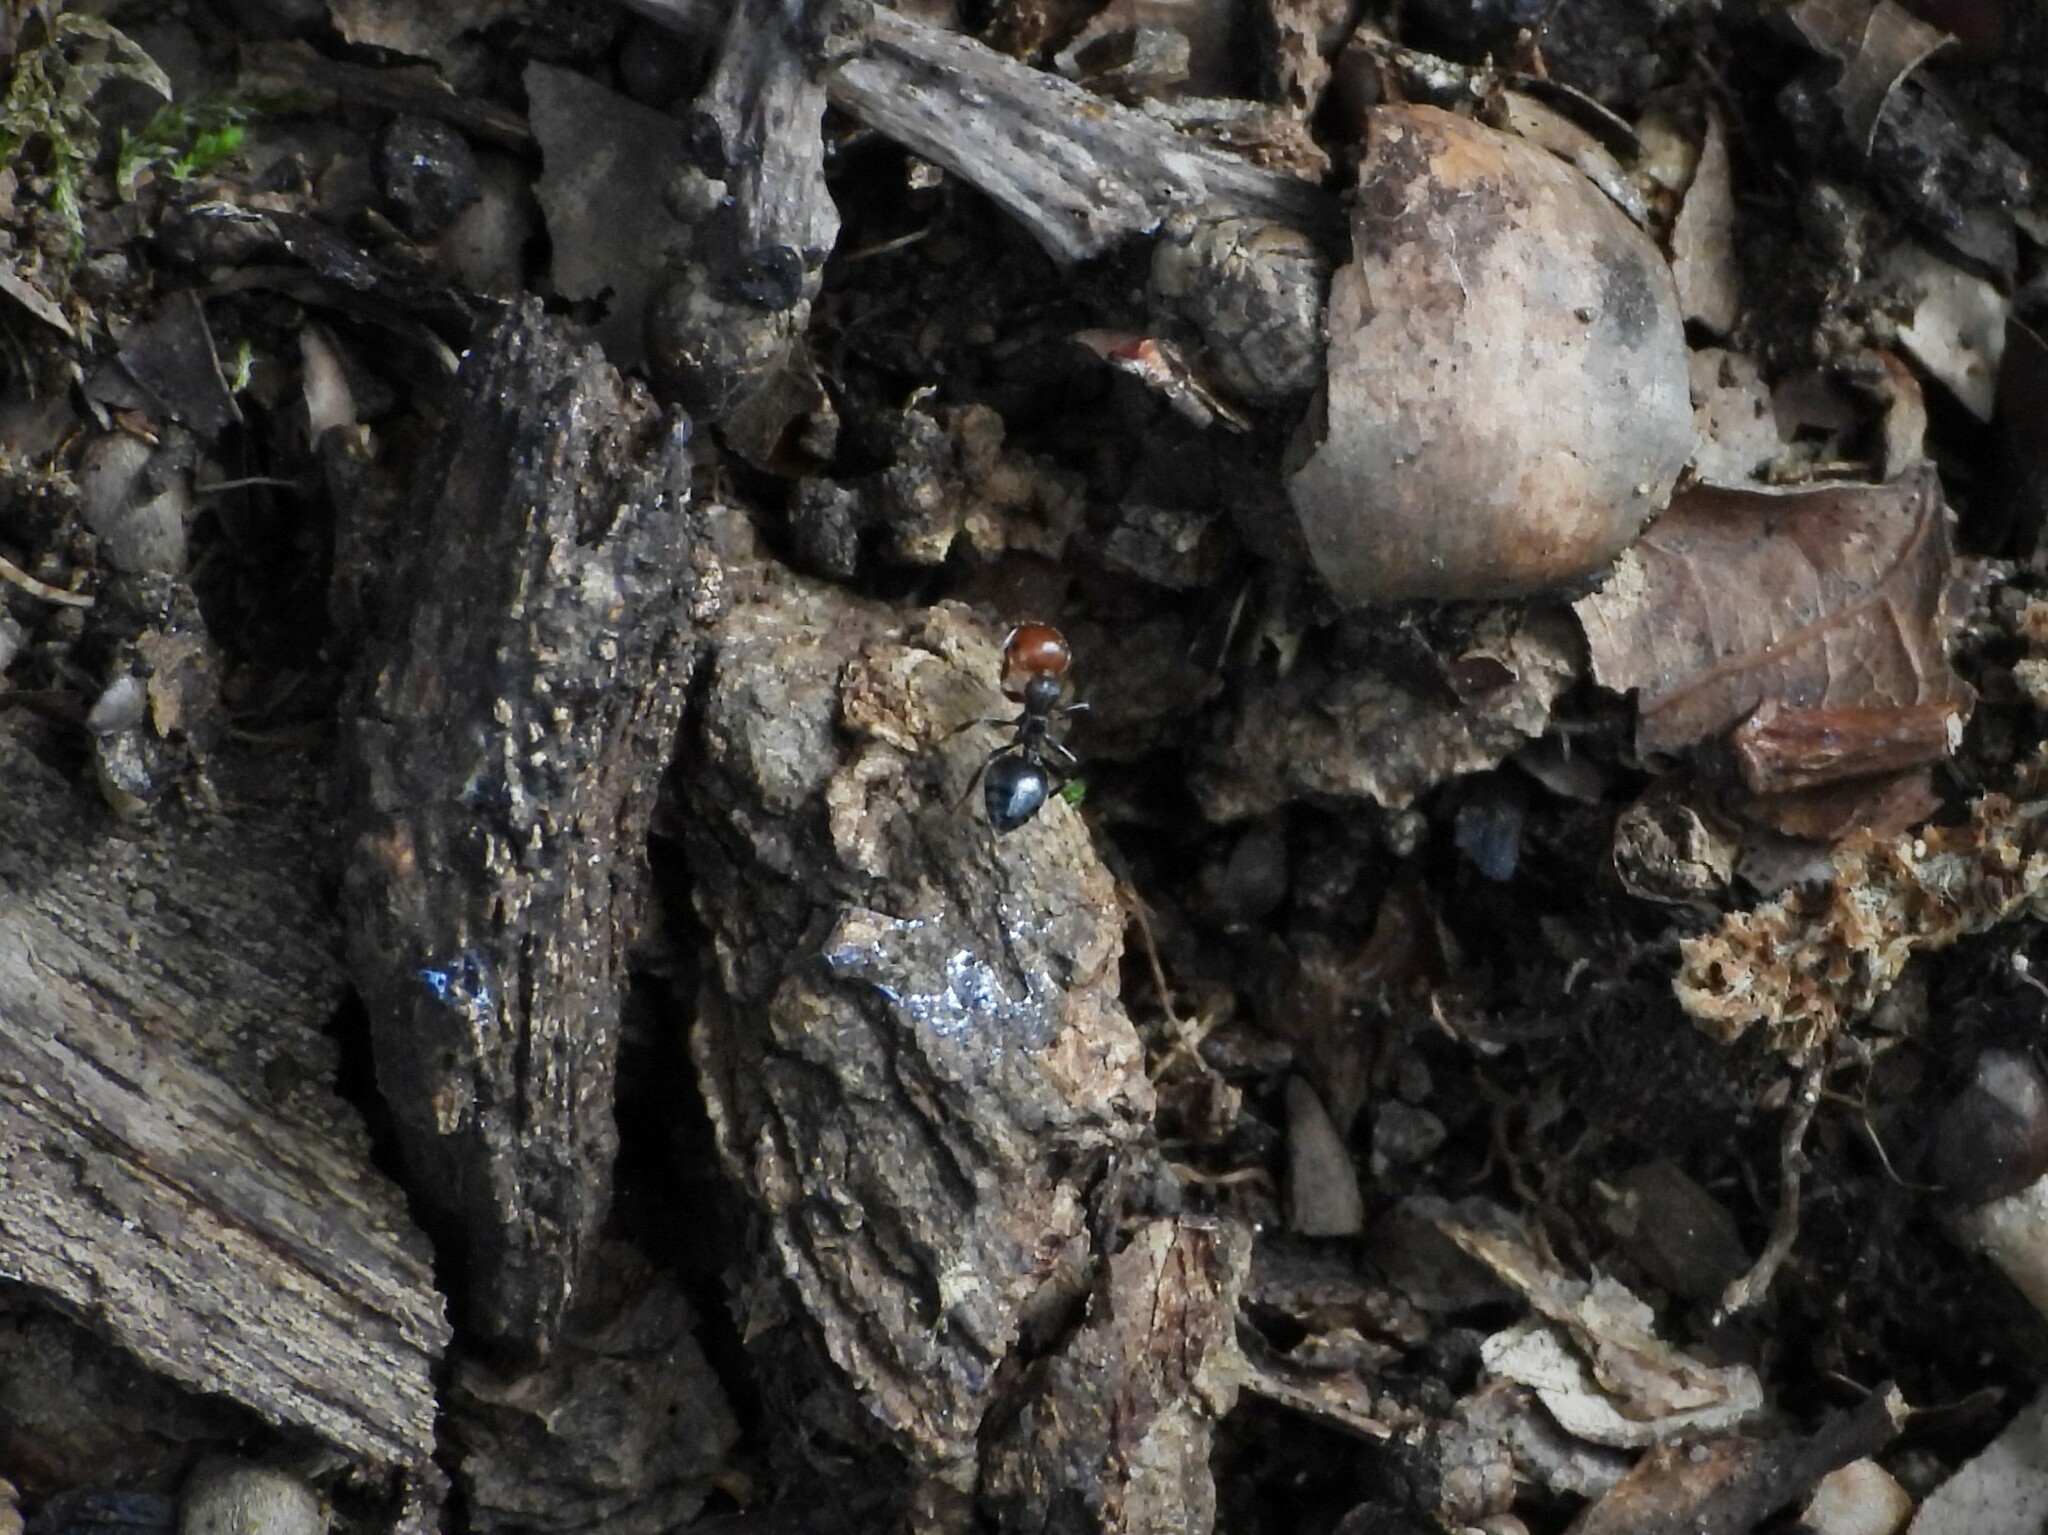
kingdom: Animalia
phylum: Arthropoda
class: Insecta
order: Hymenoptera
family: Formicidae
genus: Crematogaster
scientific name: Crematogaster scutellaris
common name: Fourmi du liège
